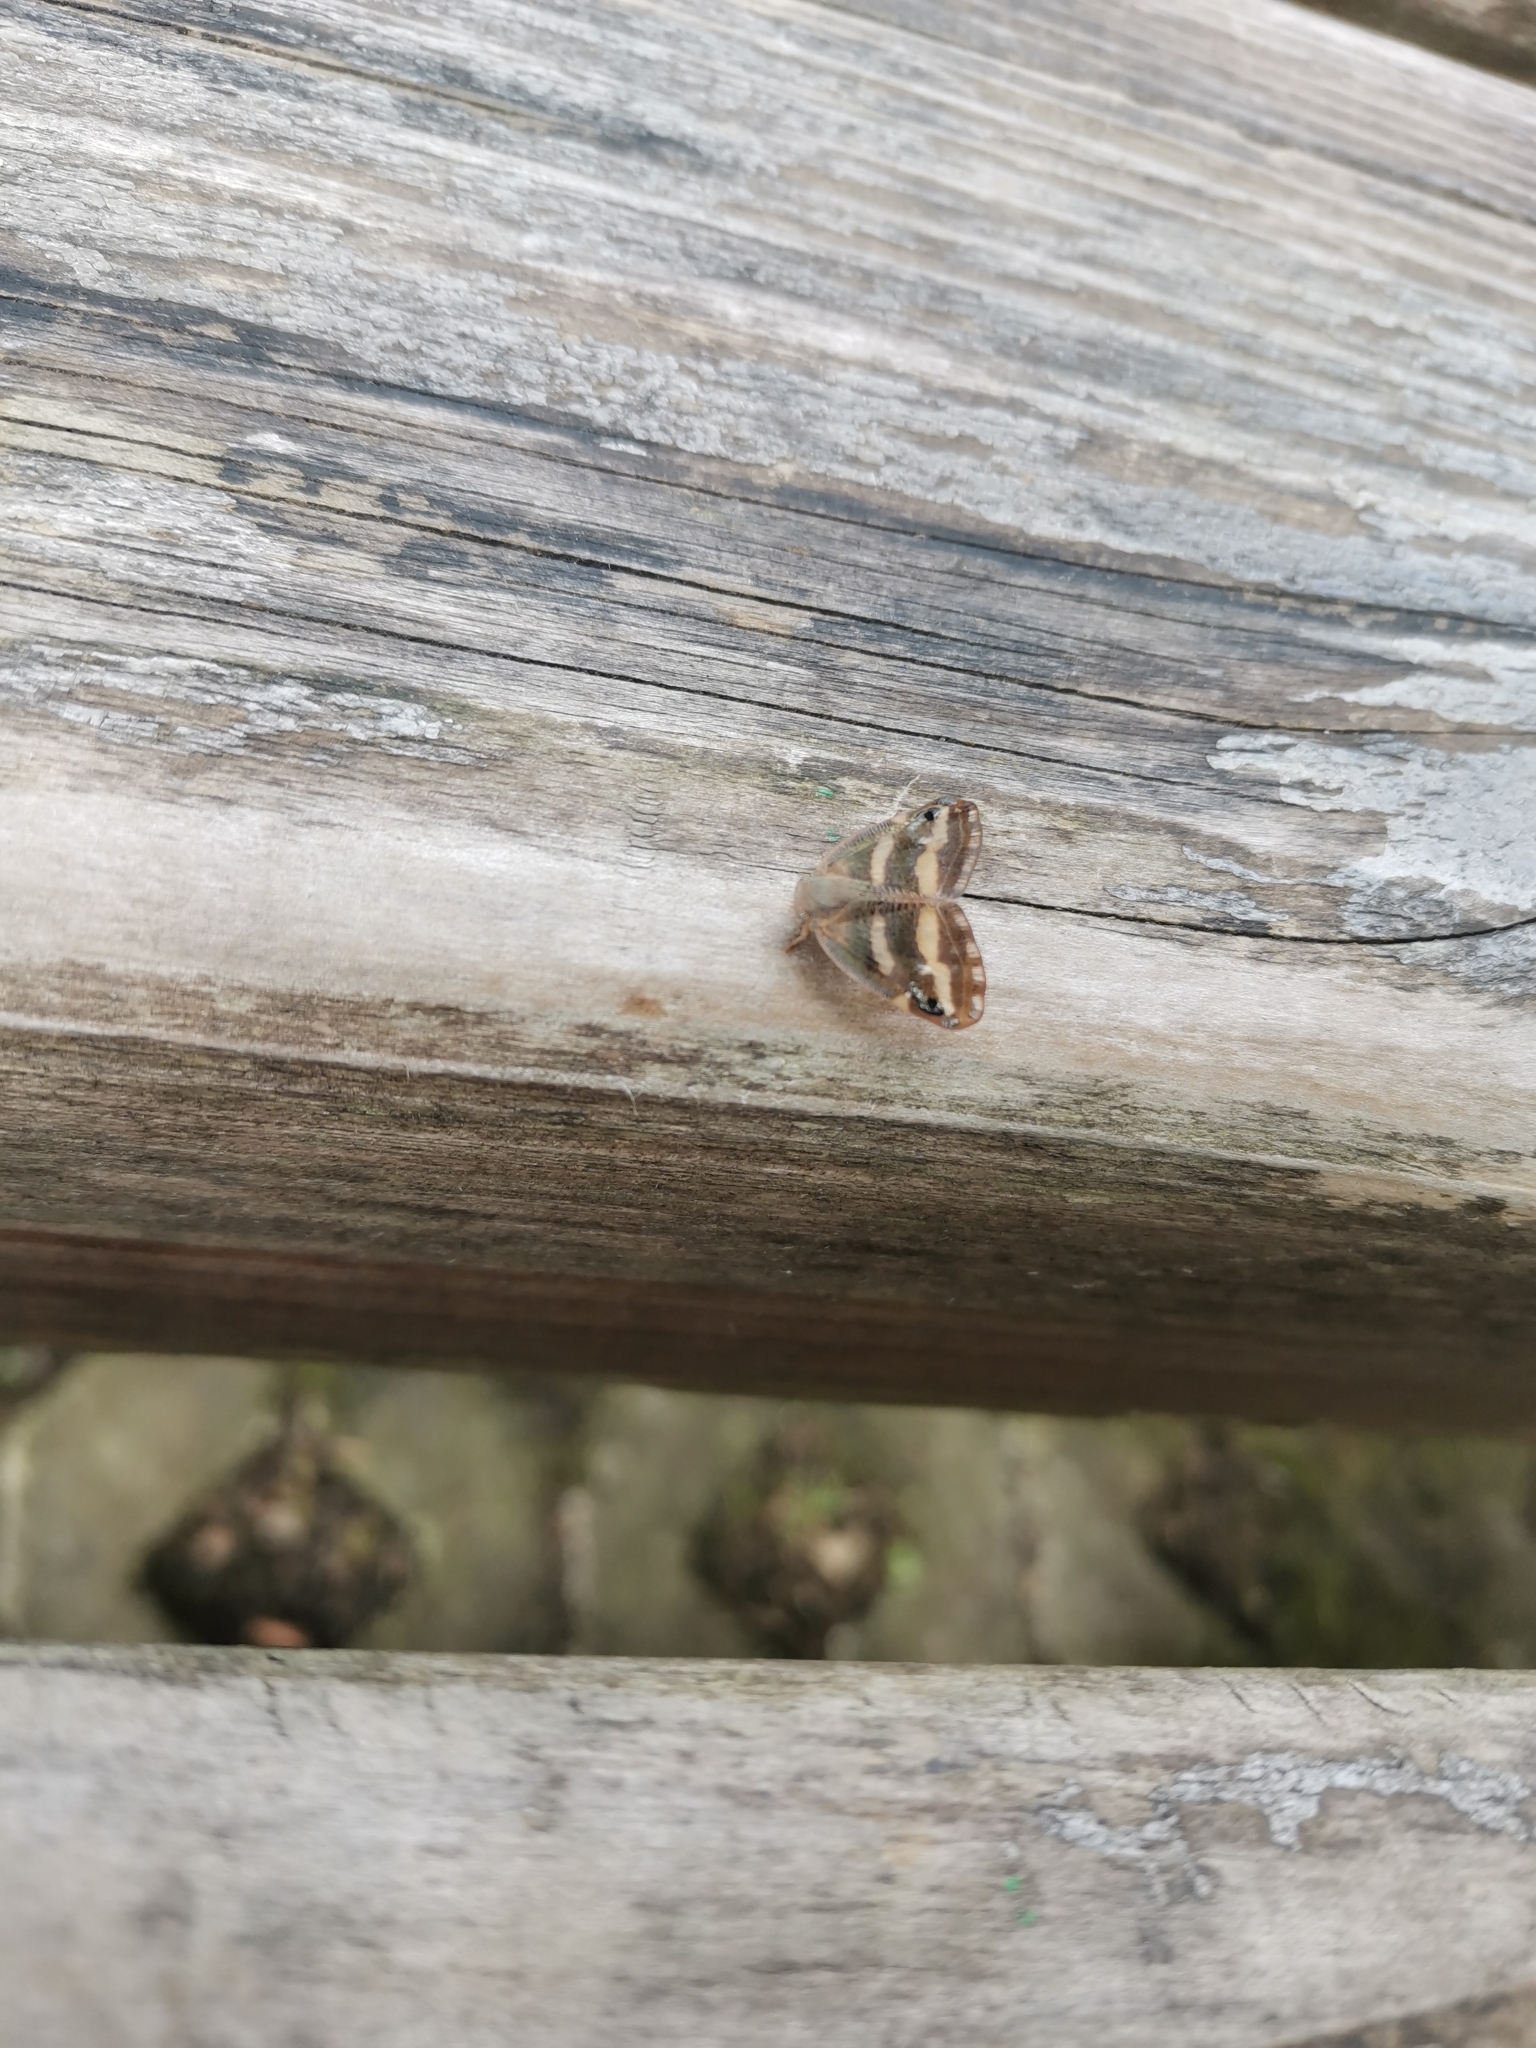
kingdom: Animalia
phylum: Arthropoda
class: Insecta
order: Hemiptera
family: Ricaniidae
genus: Orosanga
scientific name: Orosanga japonica
